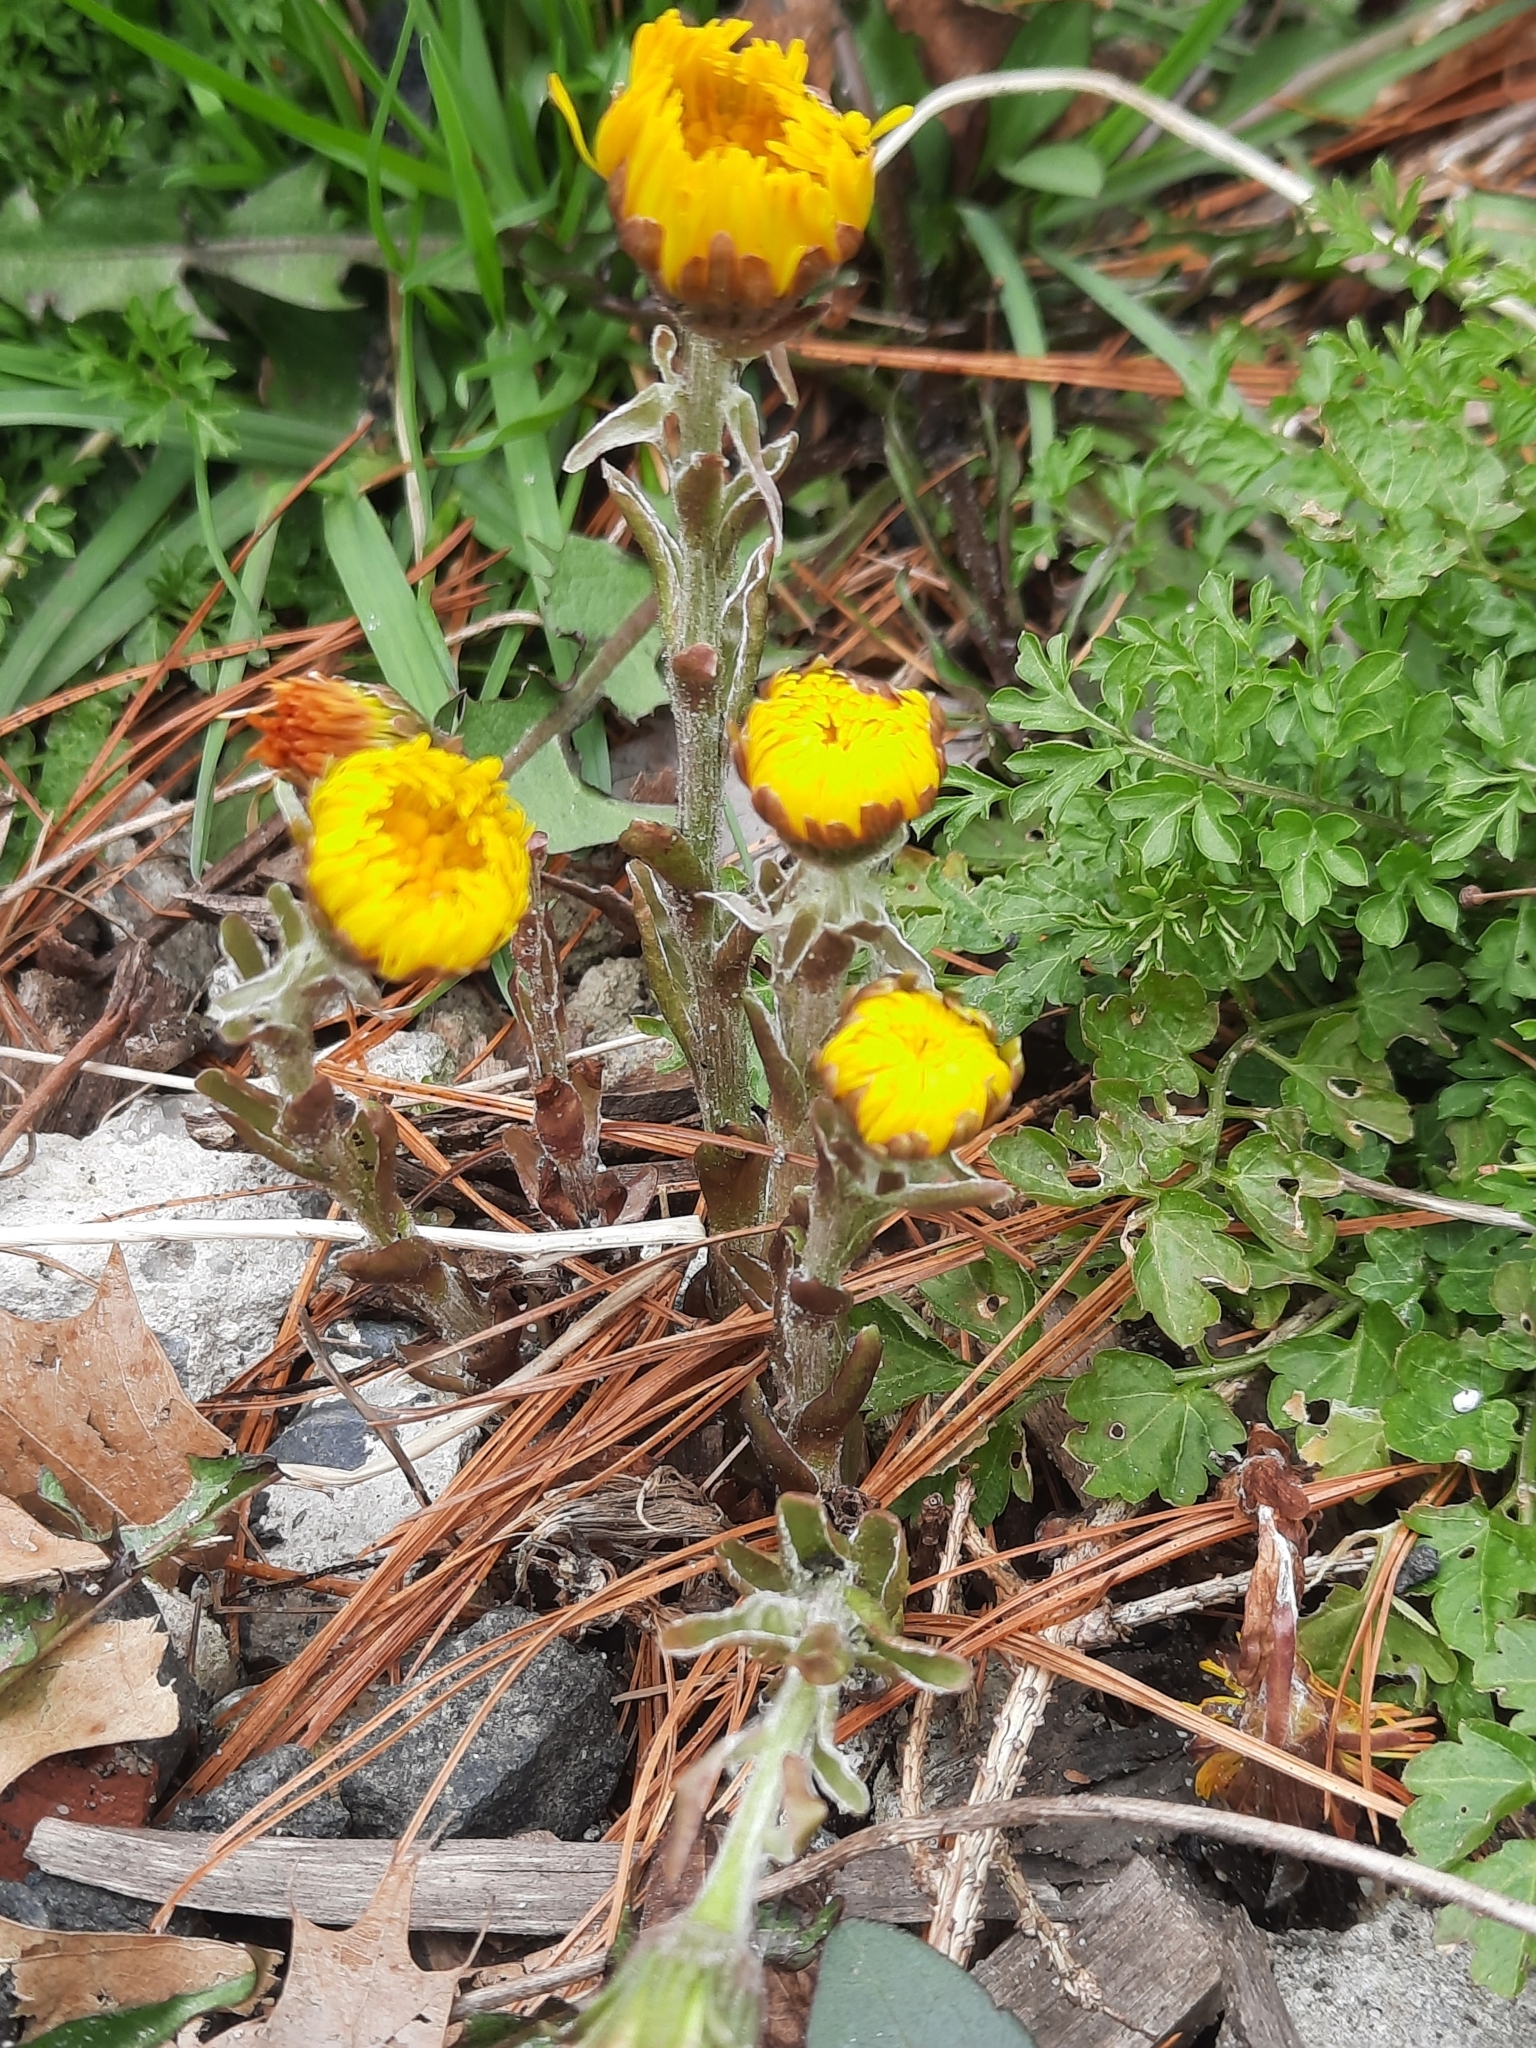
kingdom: Plantae
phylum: Tracheophyta
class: Magnoliopsida
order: Asterales
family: Asteraceae
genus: Tussilago
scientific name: Tussilago farfara
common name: Coltsfoot
